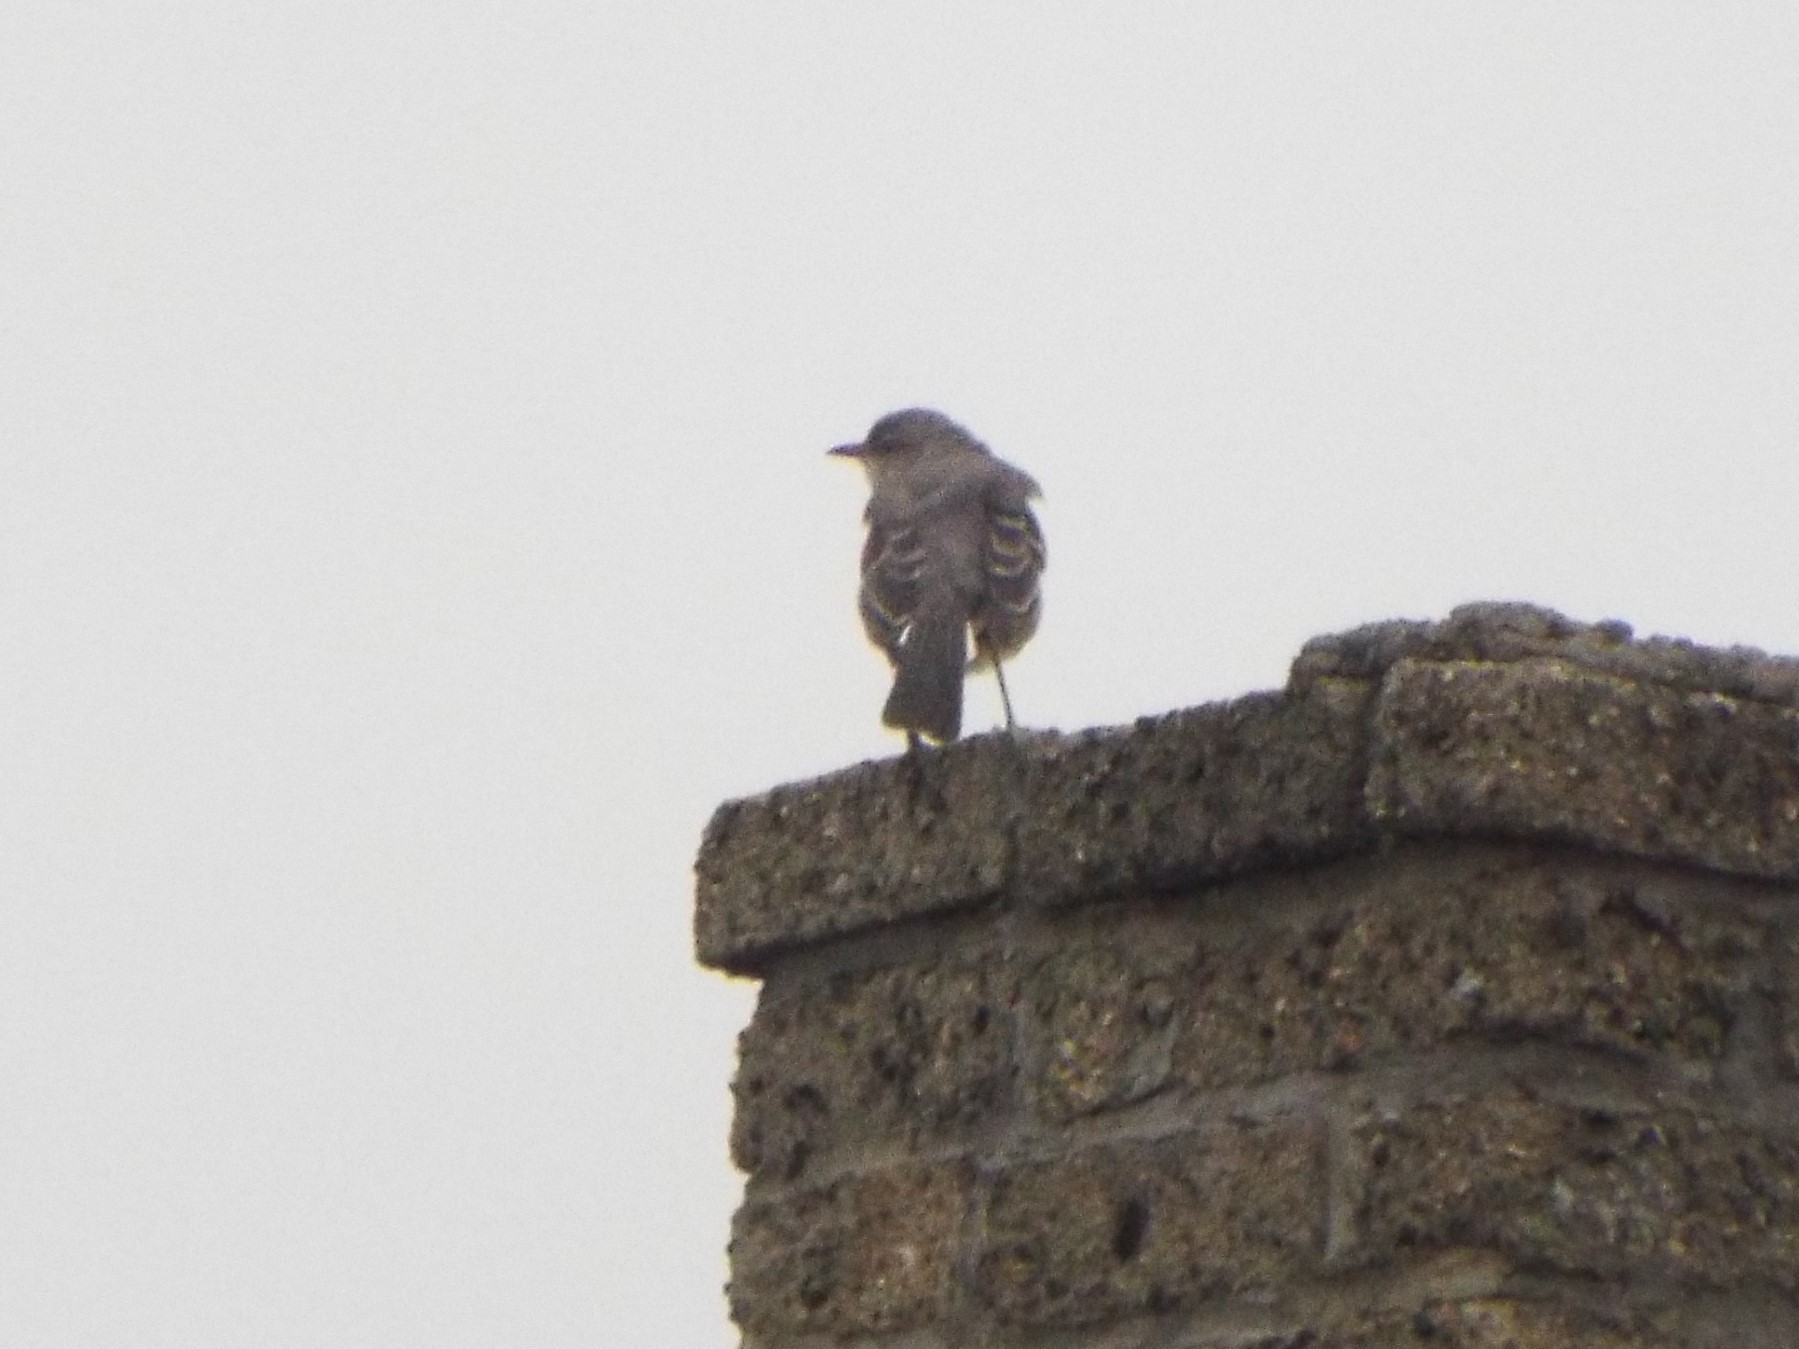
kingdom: Animalia
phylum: Chordata
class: Aves
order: Passeriformes
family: Mimidae
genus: Mimus
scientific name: Mimus polyglottos
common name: Northern mockingbird
